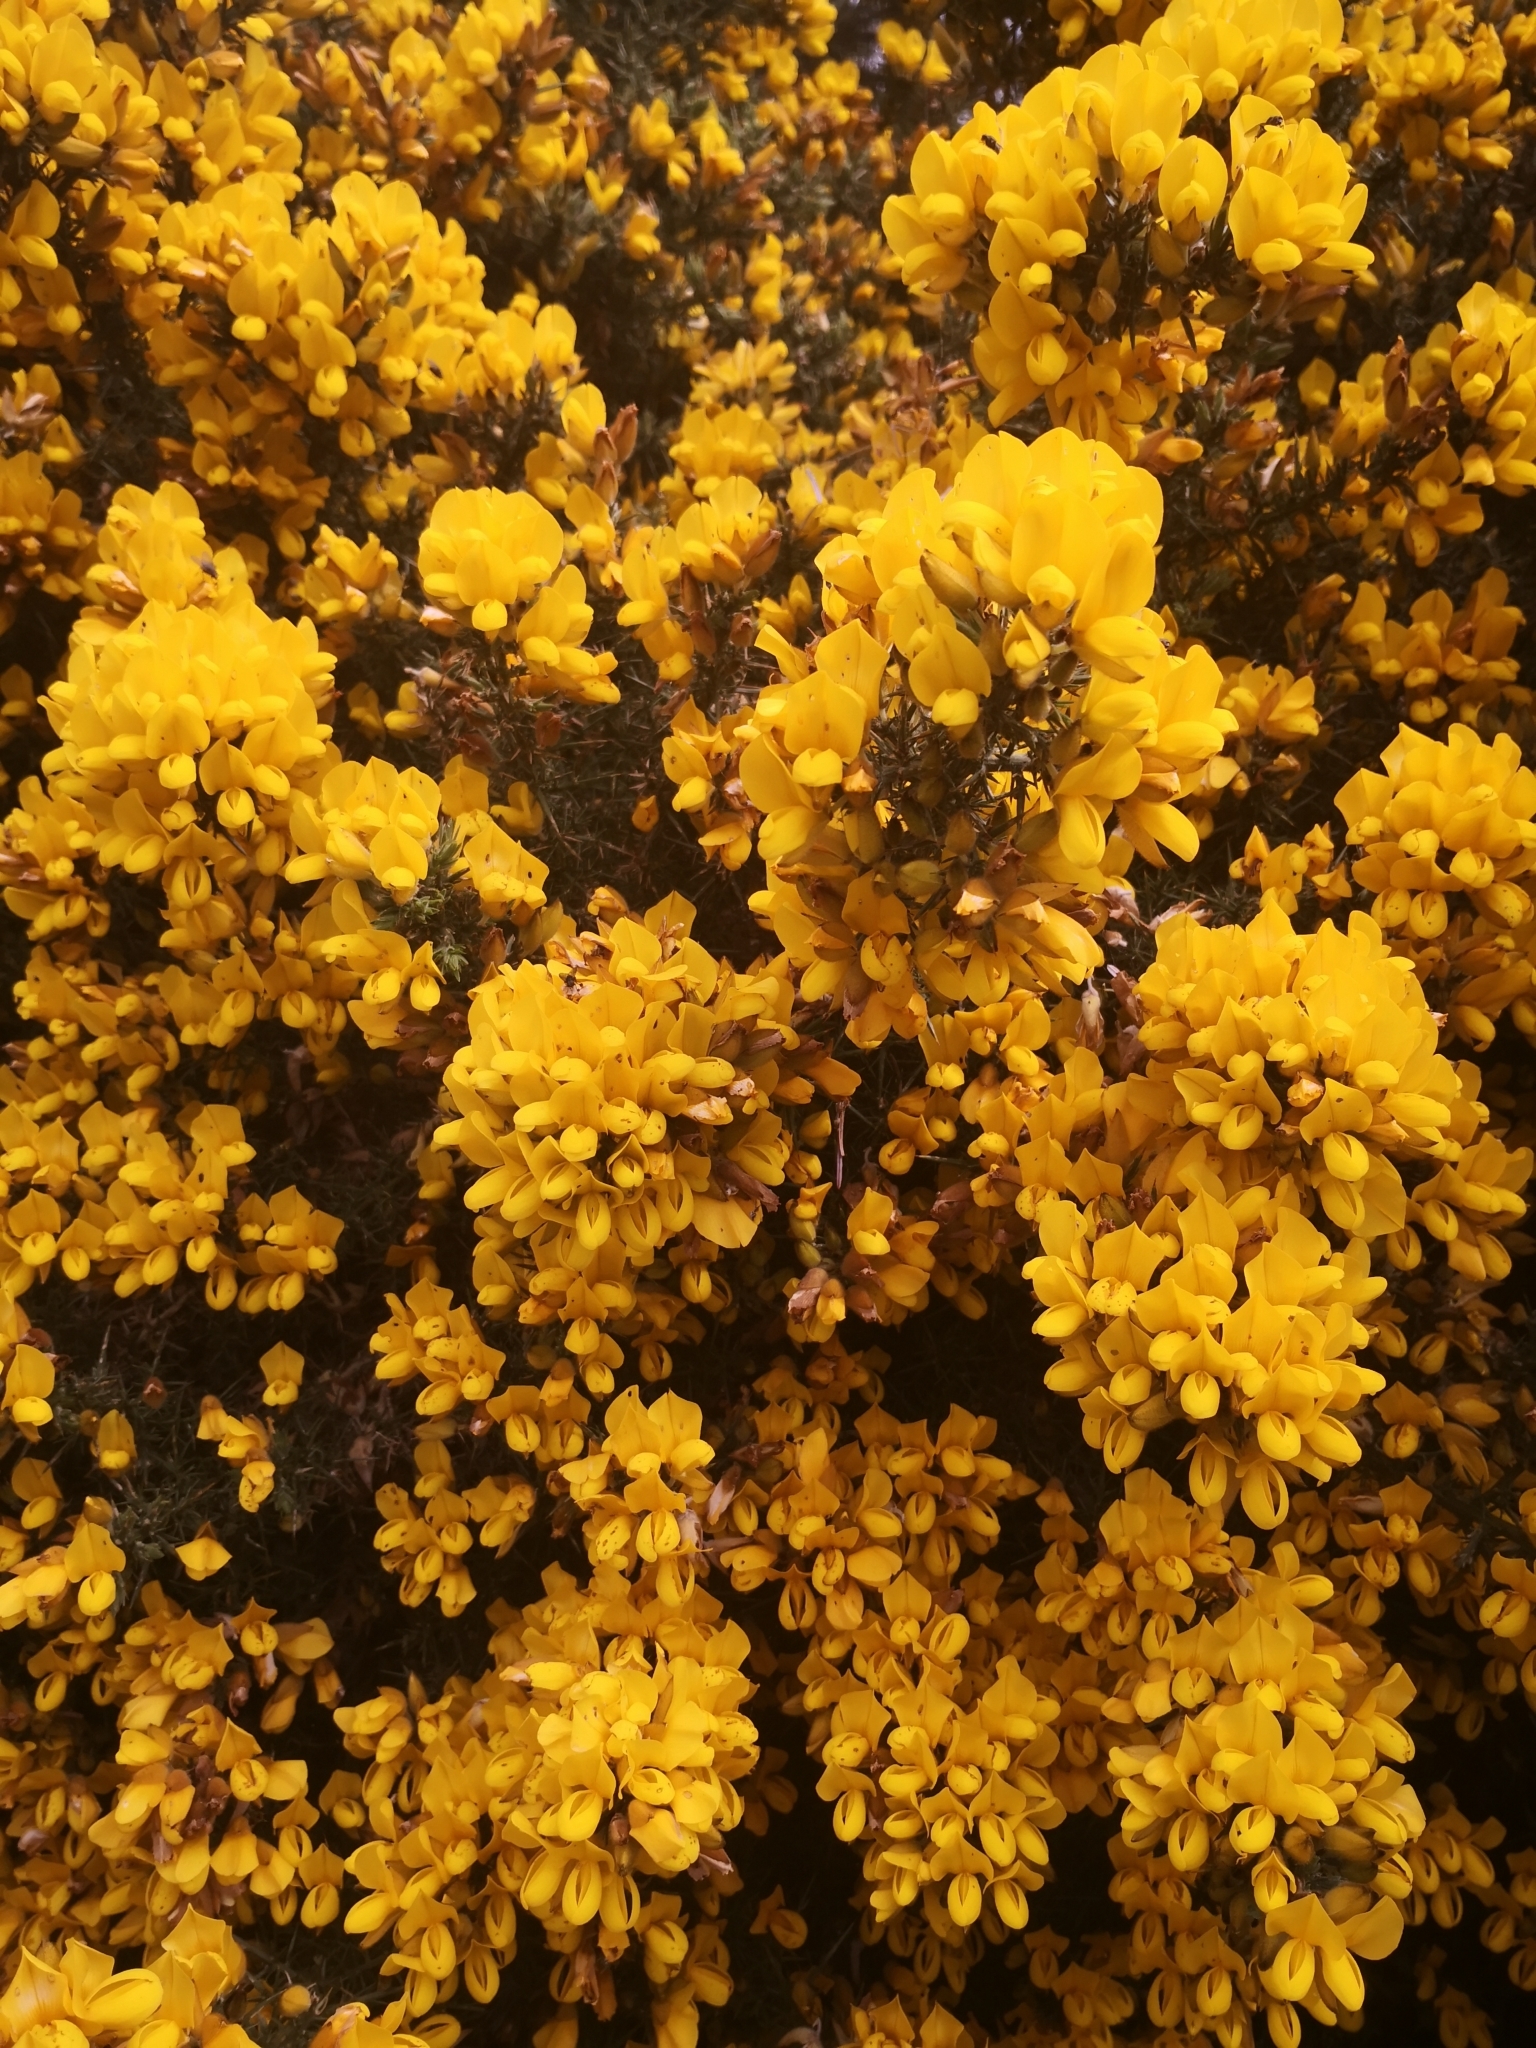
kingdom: Plantae
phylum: Tracheophyta
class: Magnoliopsida
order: Fabales
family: Fabaceae
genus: Ulex
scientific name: Ulex europaeus
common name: Common gorse
